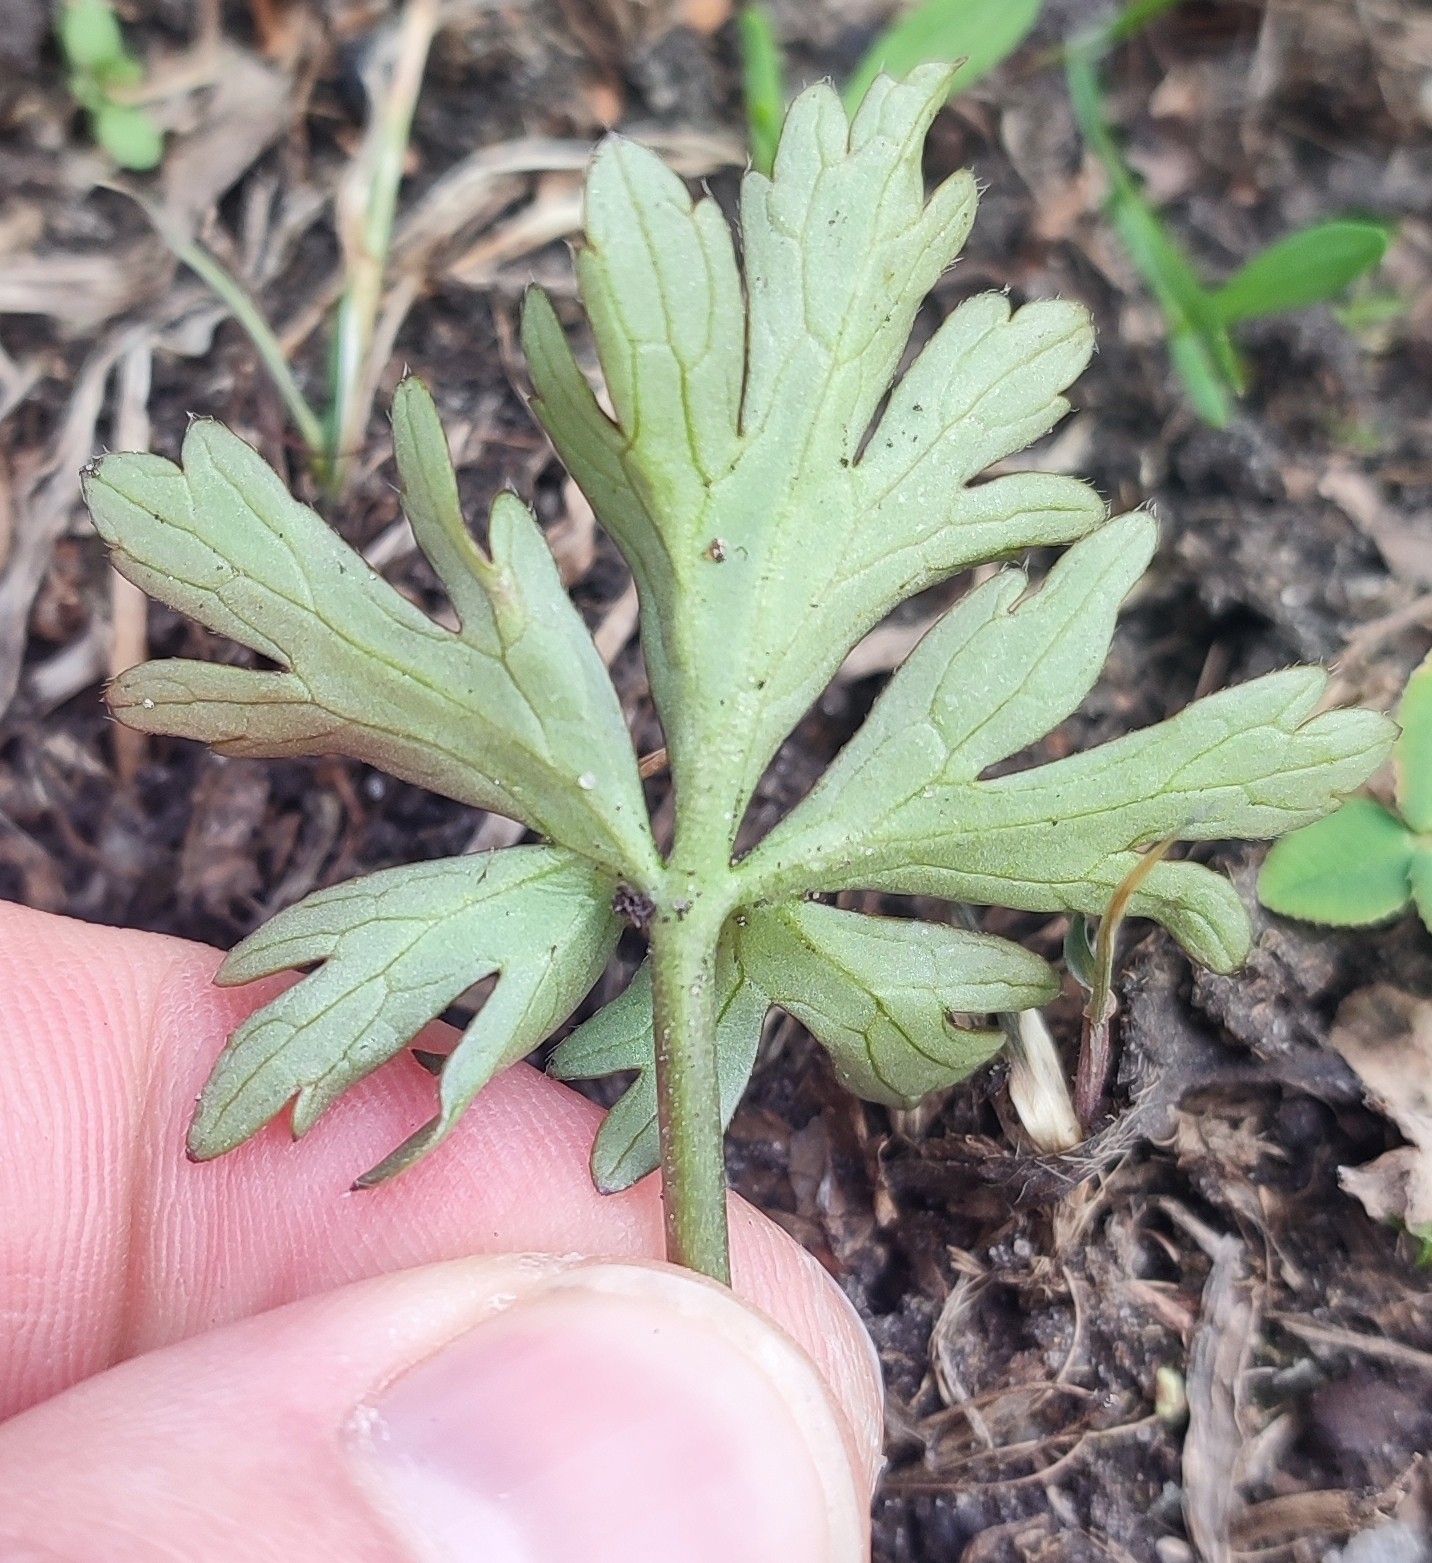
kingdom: Plantae
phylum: Tracheophyta
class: Magnoliopsida
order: Ranunculales
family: Ranunculaceae
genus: Ranunculus
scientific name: Ranunculus repens
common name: Creeping buttercup
